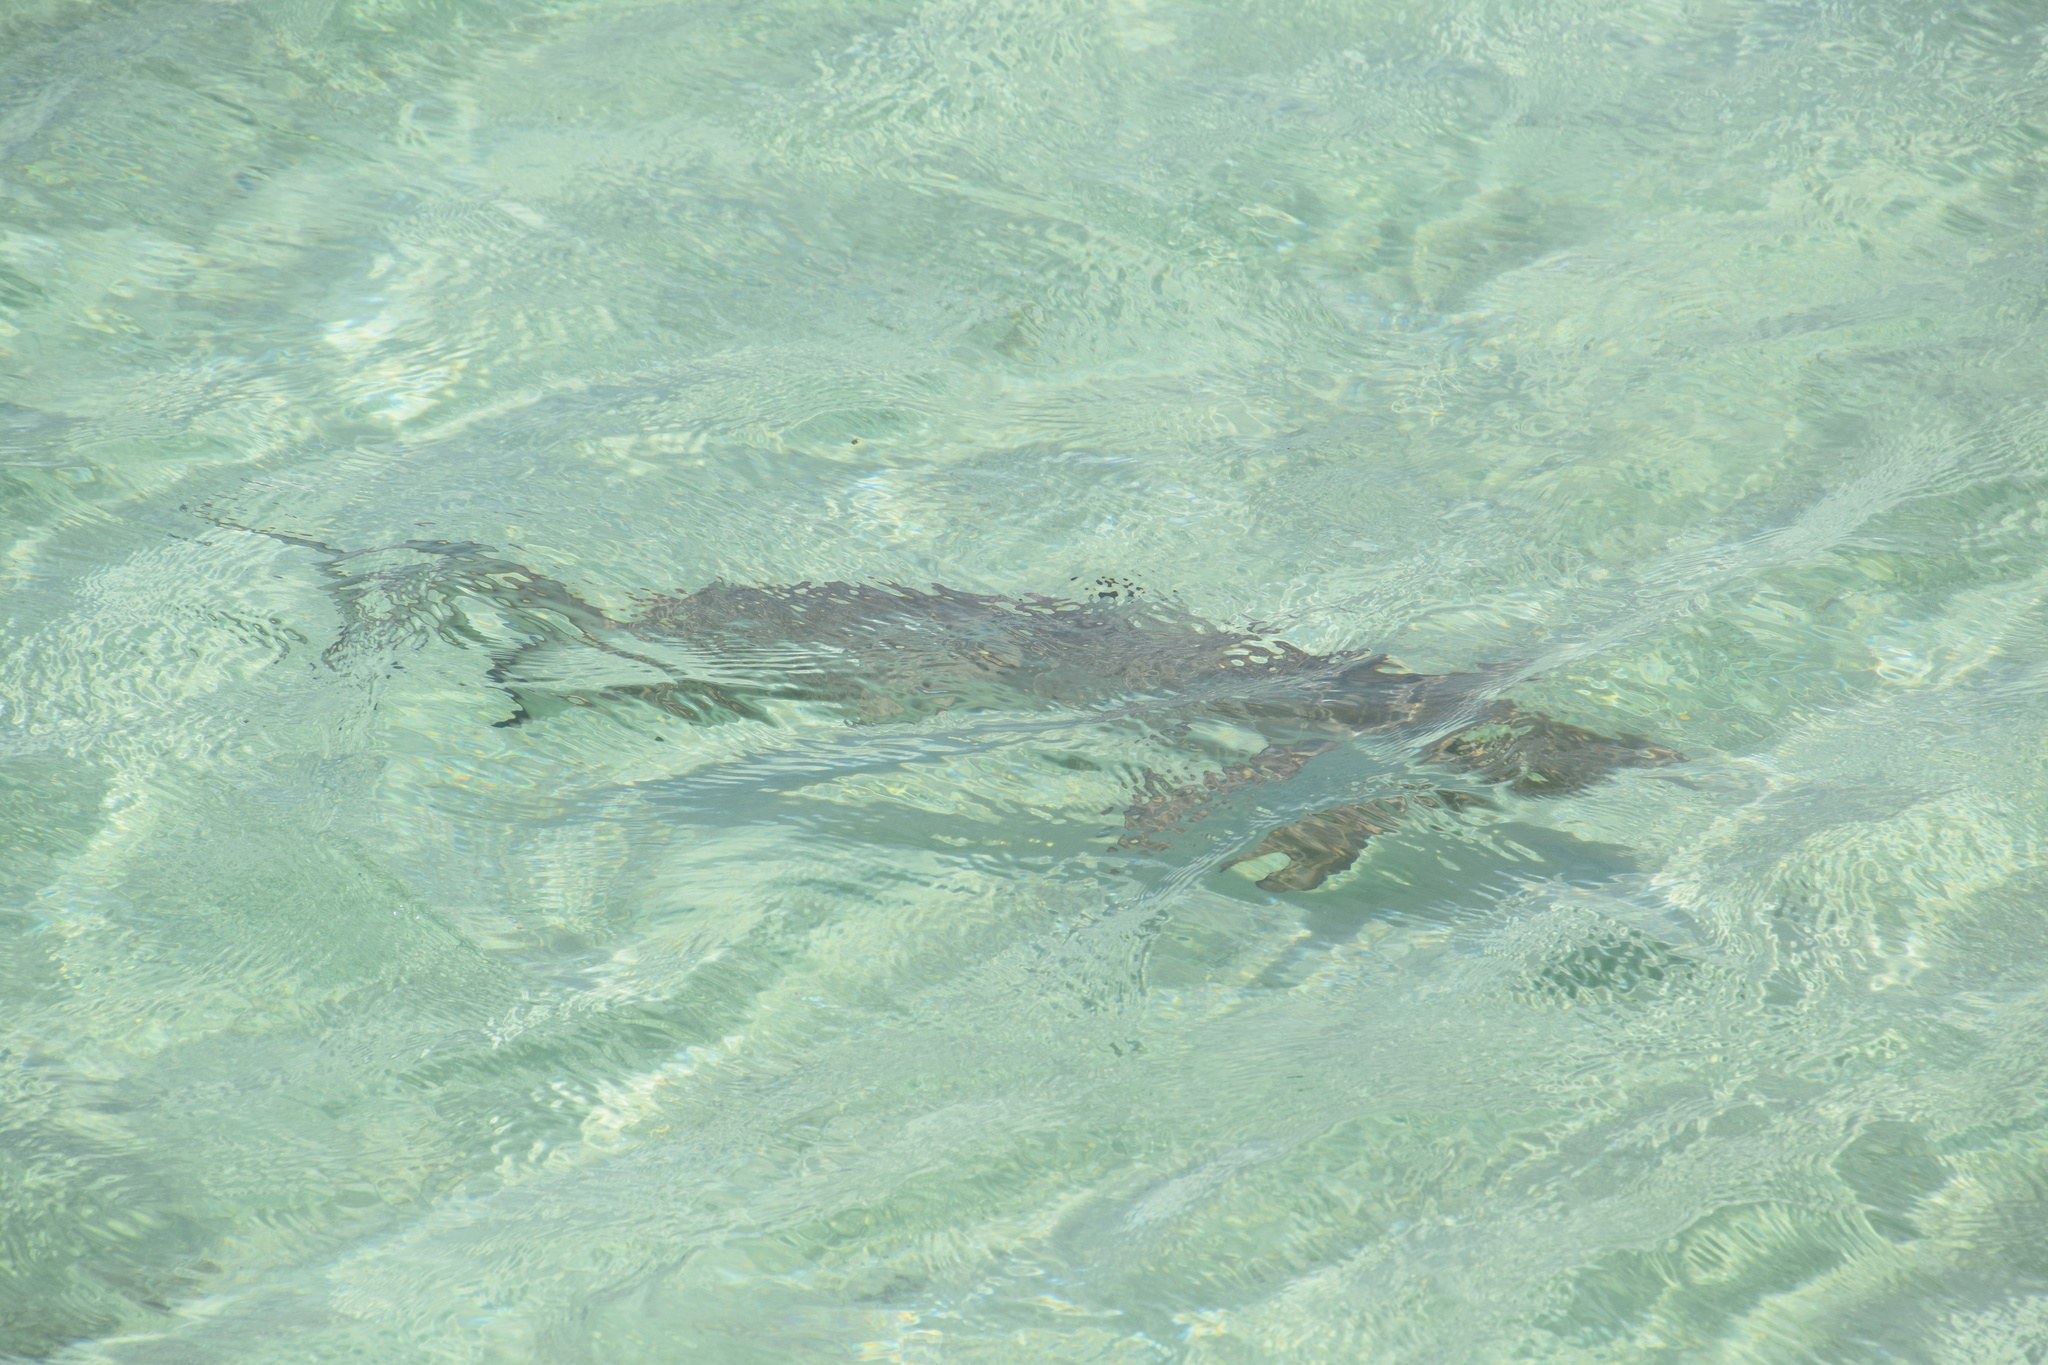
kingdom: Animalia
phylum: Chordata
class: Elasmobranchii
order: Carcharhiniformes
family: Carcharhinidae
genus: Carcharhinus
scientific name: Carcharhinus melanopterus
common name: Blacktip reef shark
